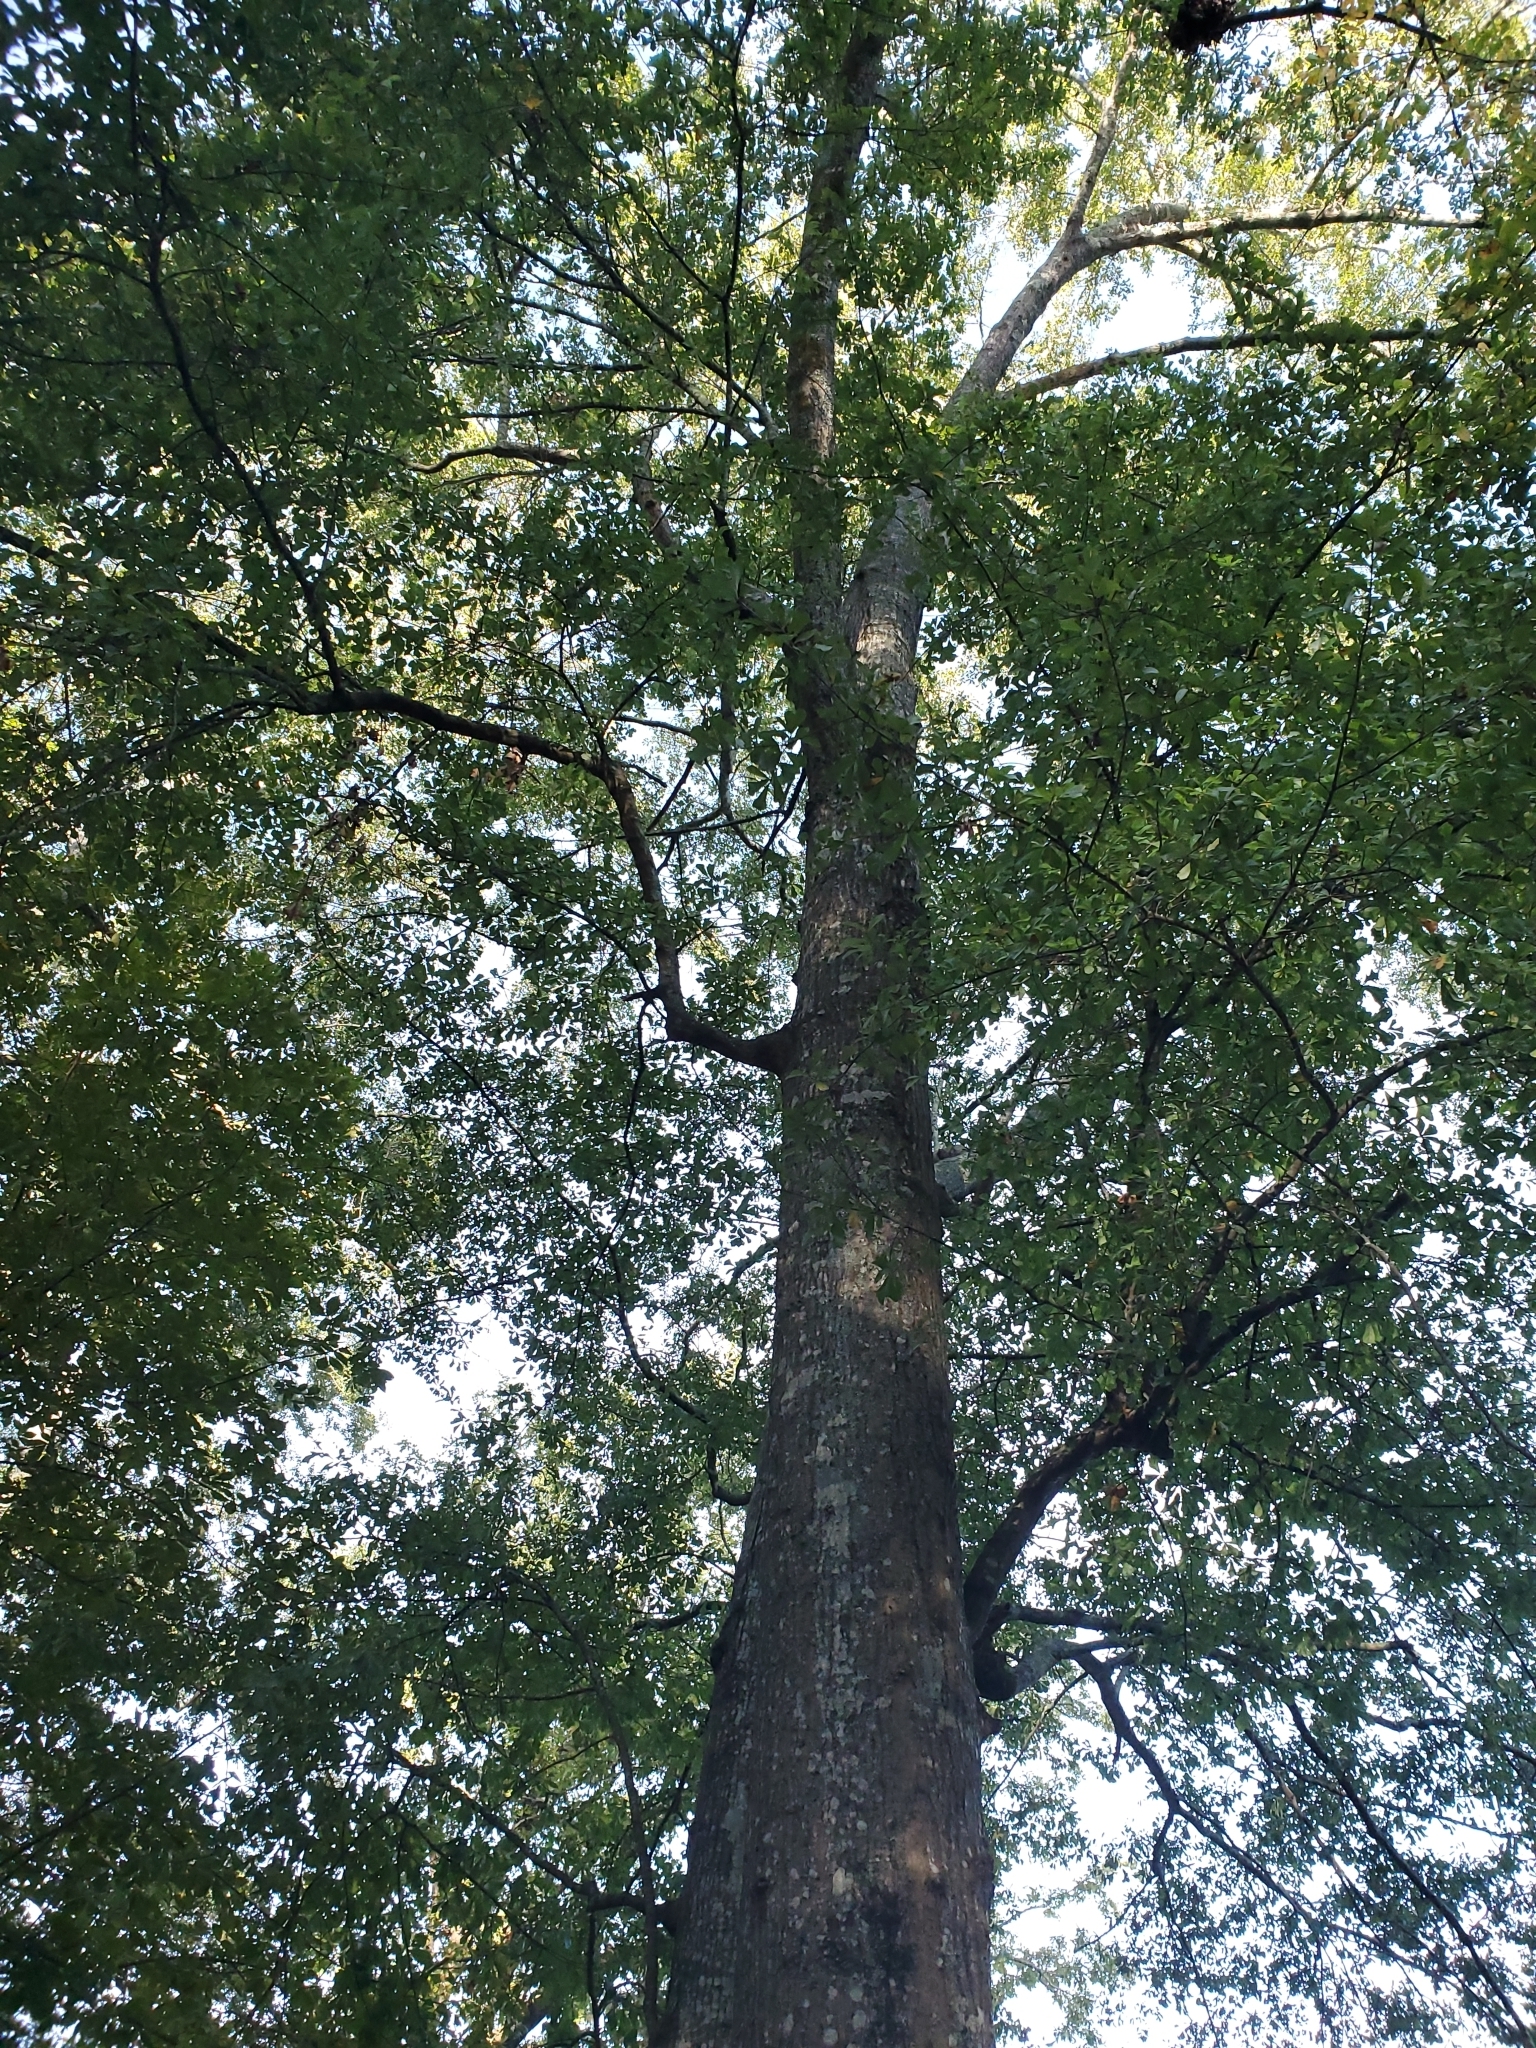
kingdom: Plantae
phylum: Tracheophyta
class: Magnoliopsida
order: Fagales
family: Fagaceae
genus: Quercus
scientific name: Quercus nigra
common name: Water oak
